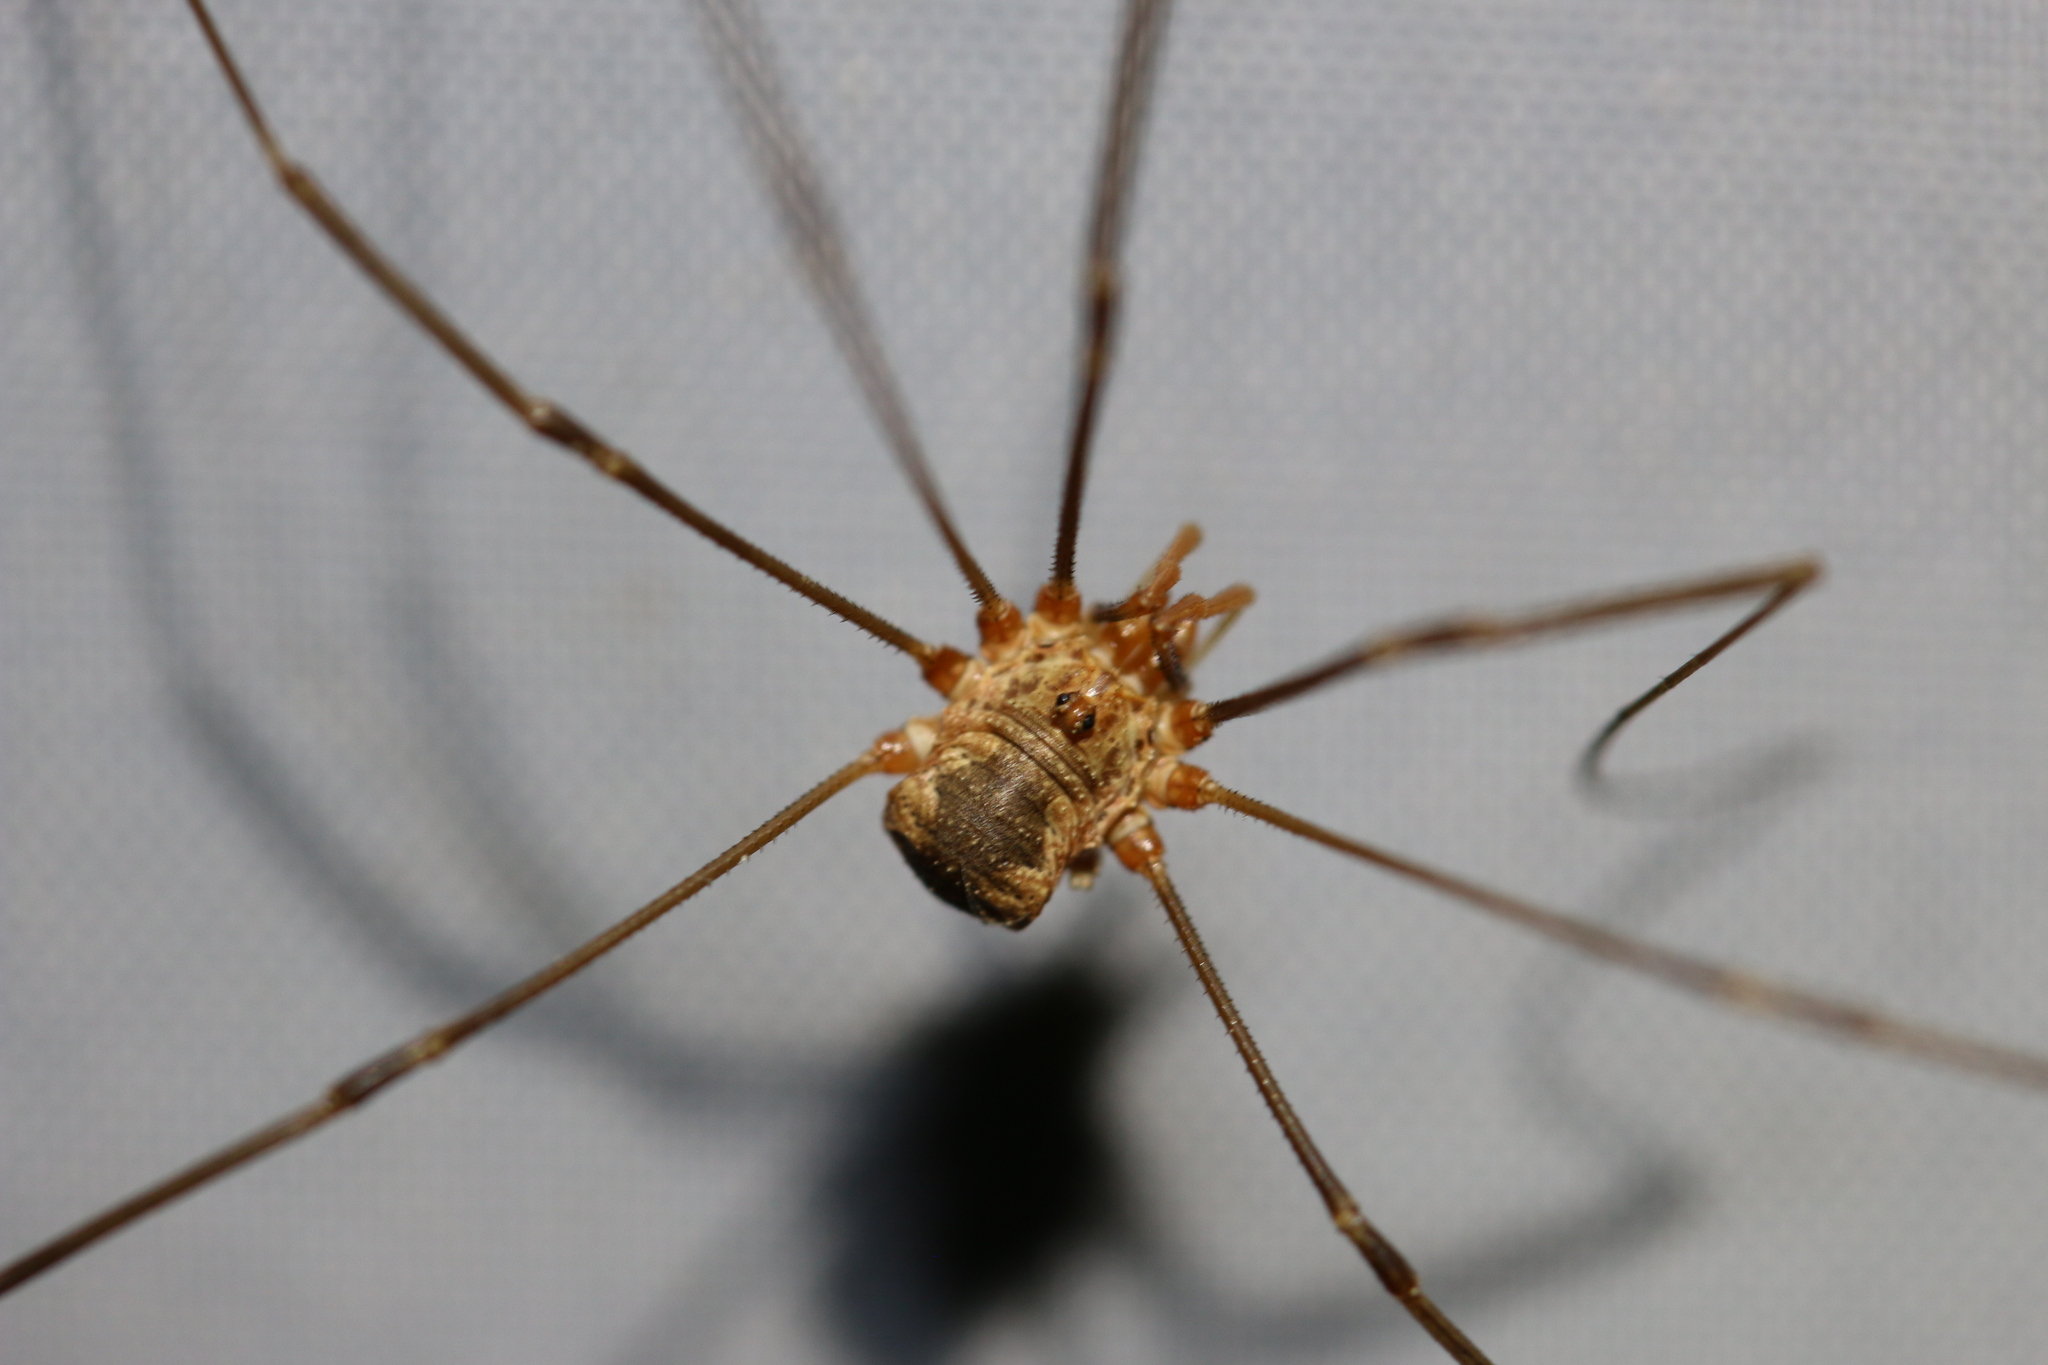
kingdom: Animalia
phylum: Arthropoda
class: Arachnida
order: Opiliones
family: Phalangiidae
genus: Phalangium
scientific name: Phalangium opilio
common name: Daddy longleg
